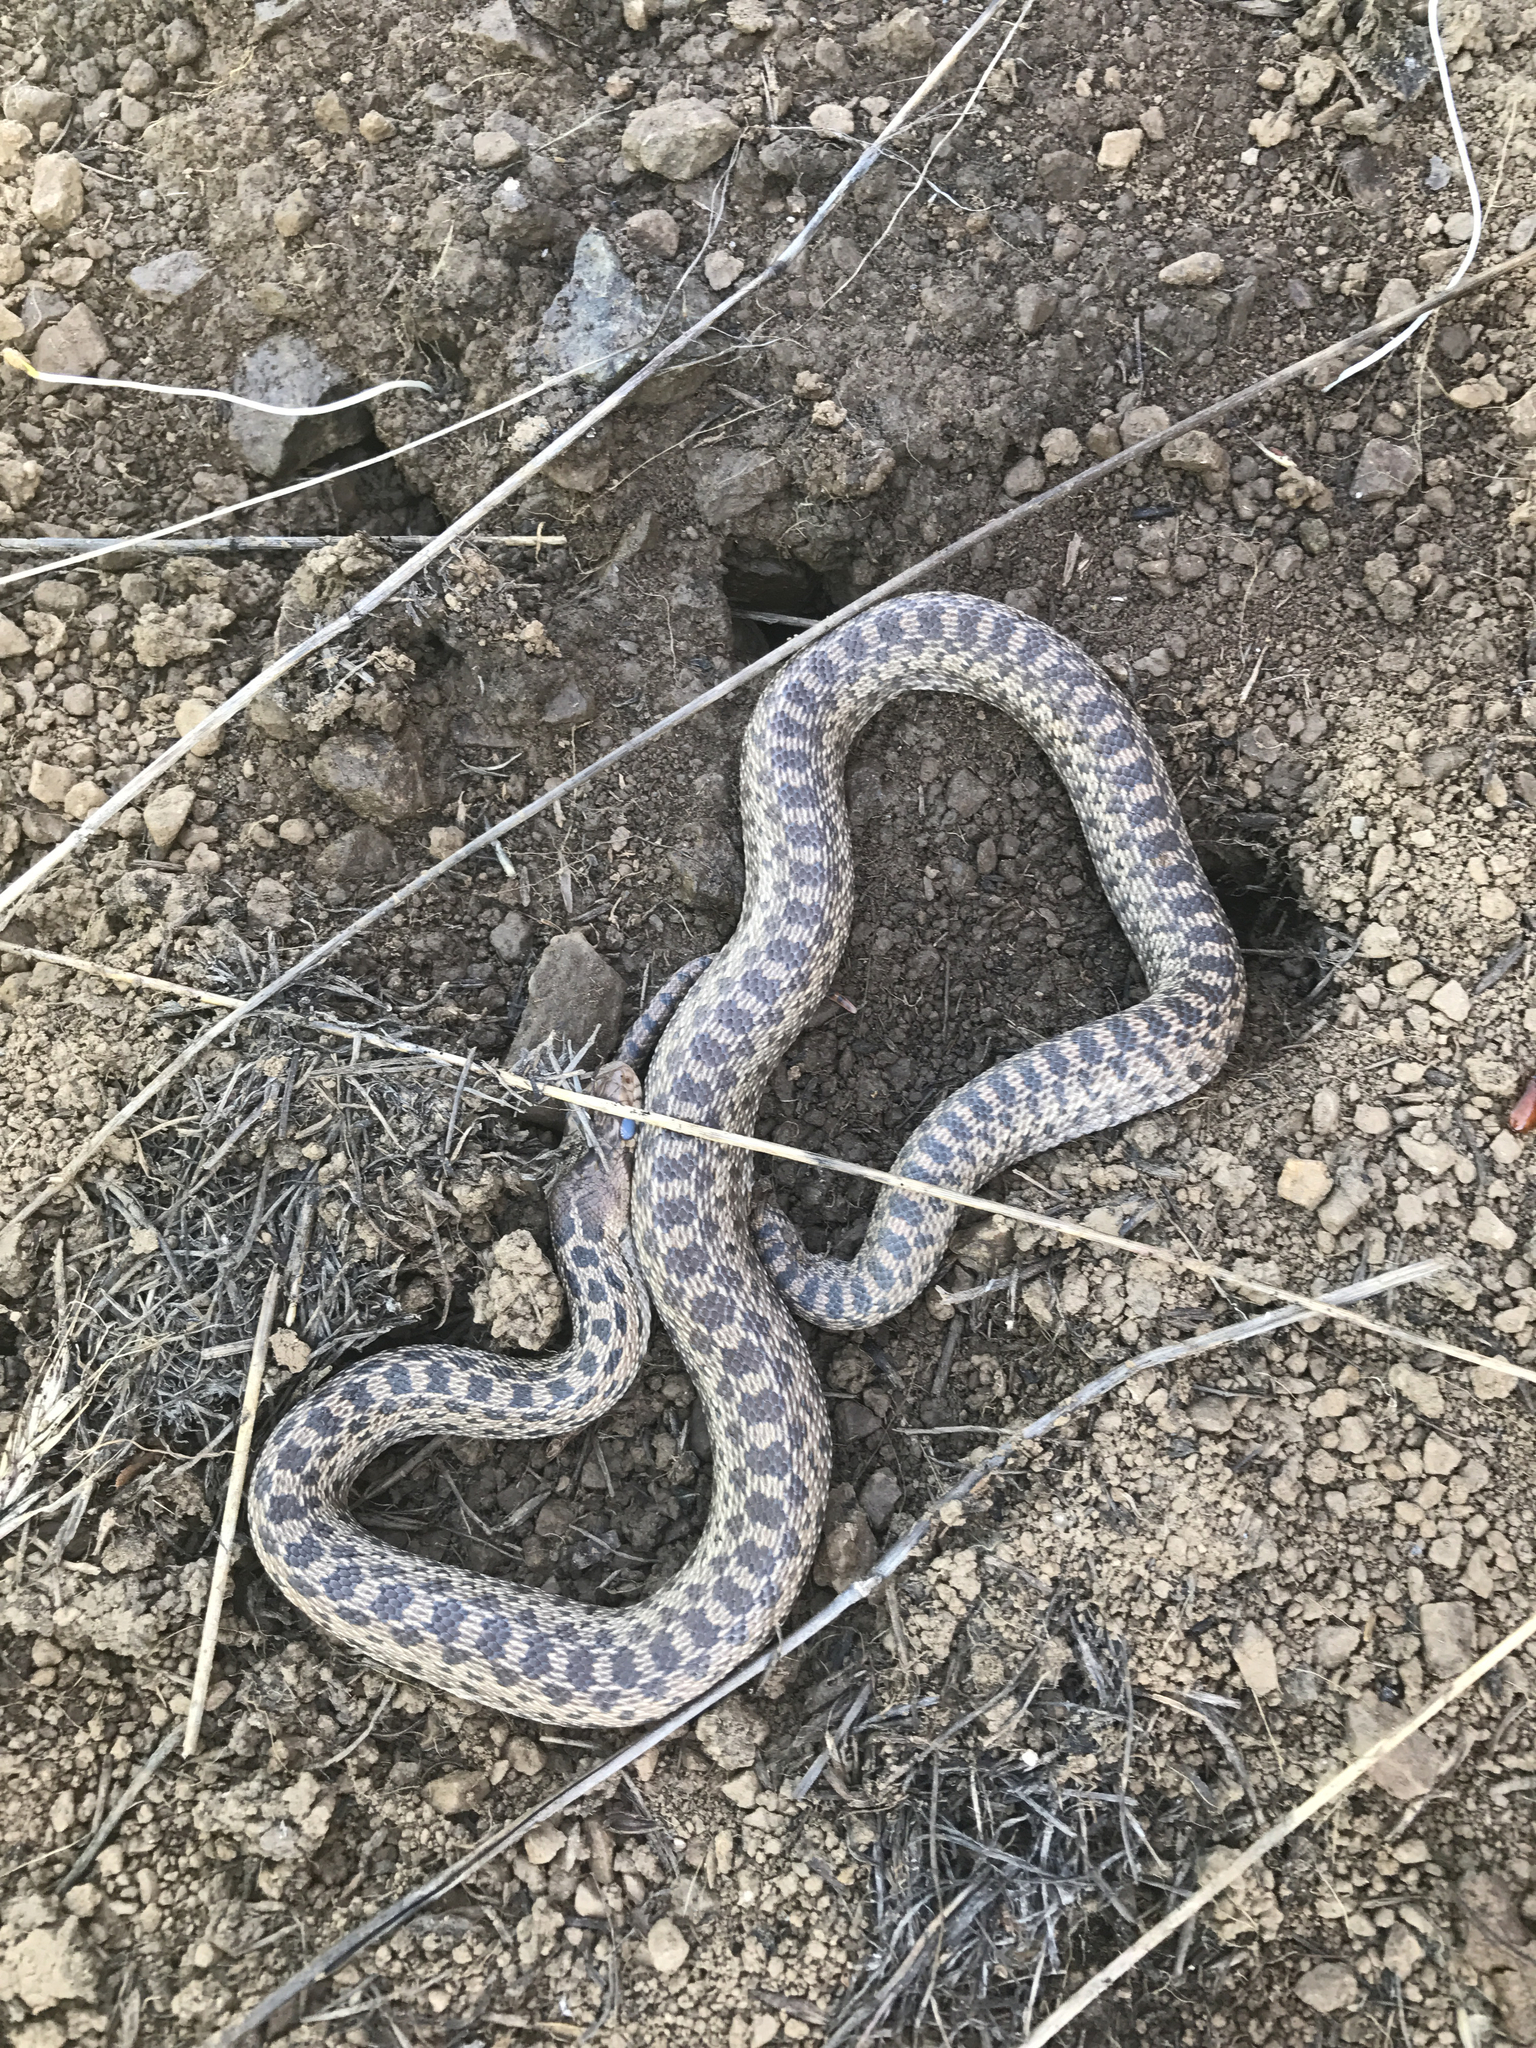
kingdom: Animalia
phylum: Chordata
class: Squamata
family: Colubridae
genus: Pituophis
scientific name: Pituophis catenifer
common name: Gopher snake
